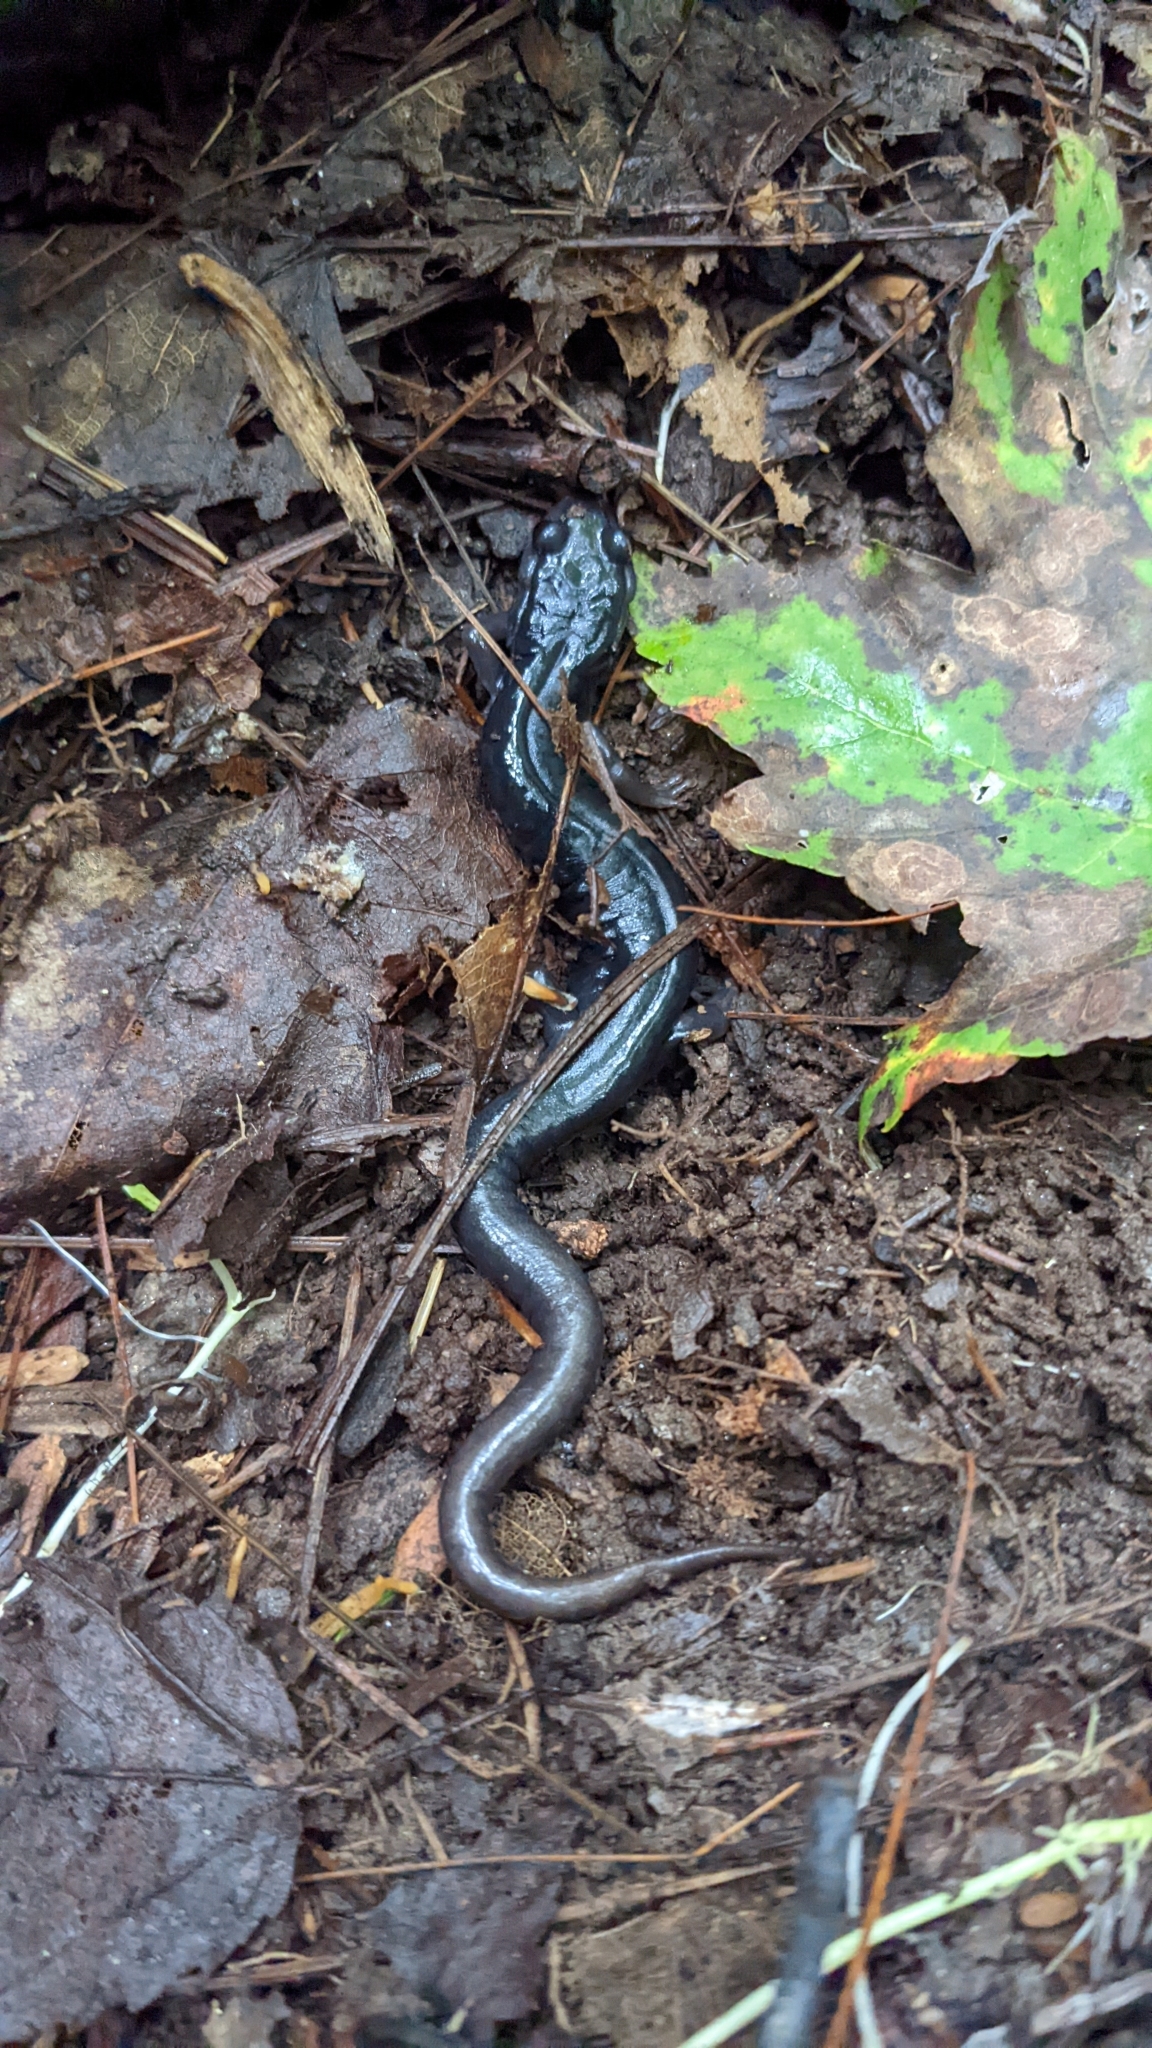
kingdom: Animalia
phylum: Chordata
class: Amphibia
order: Caudata
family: Plethodontidae
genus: Plethodon
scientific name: Plethodon metcalfi
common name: Southern gray-cheeked salamander
